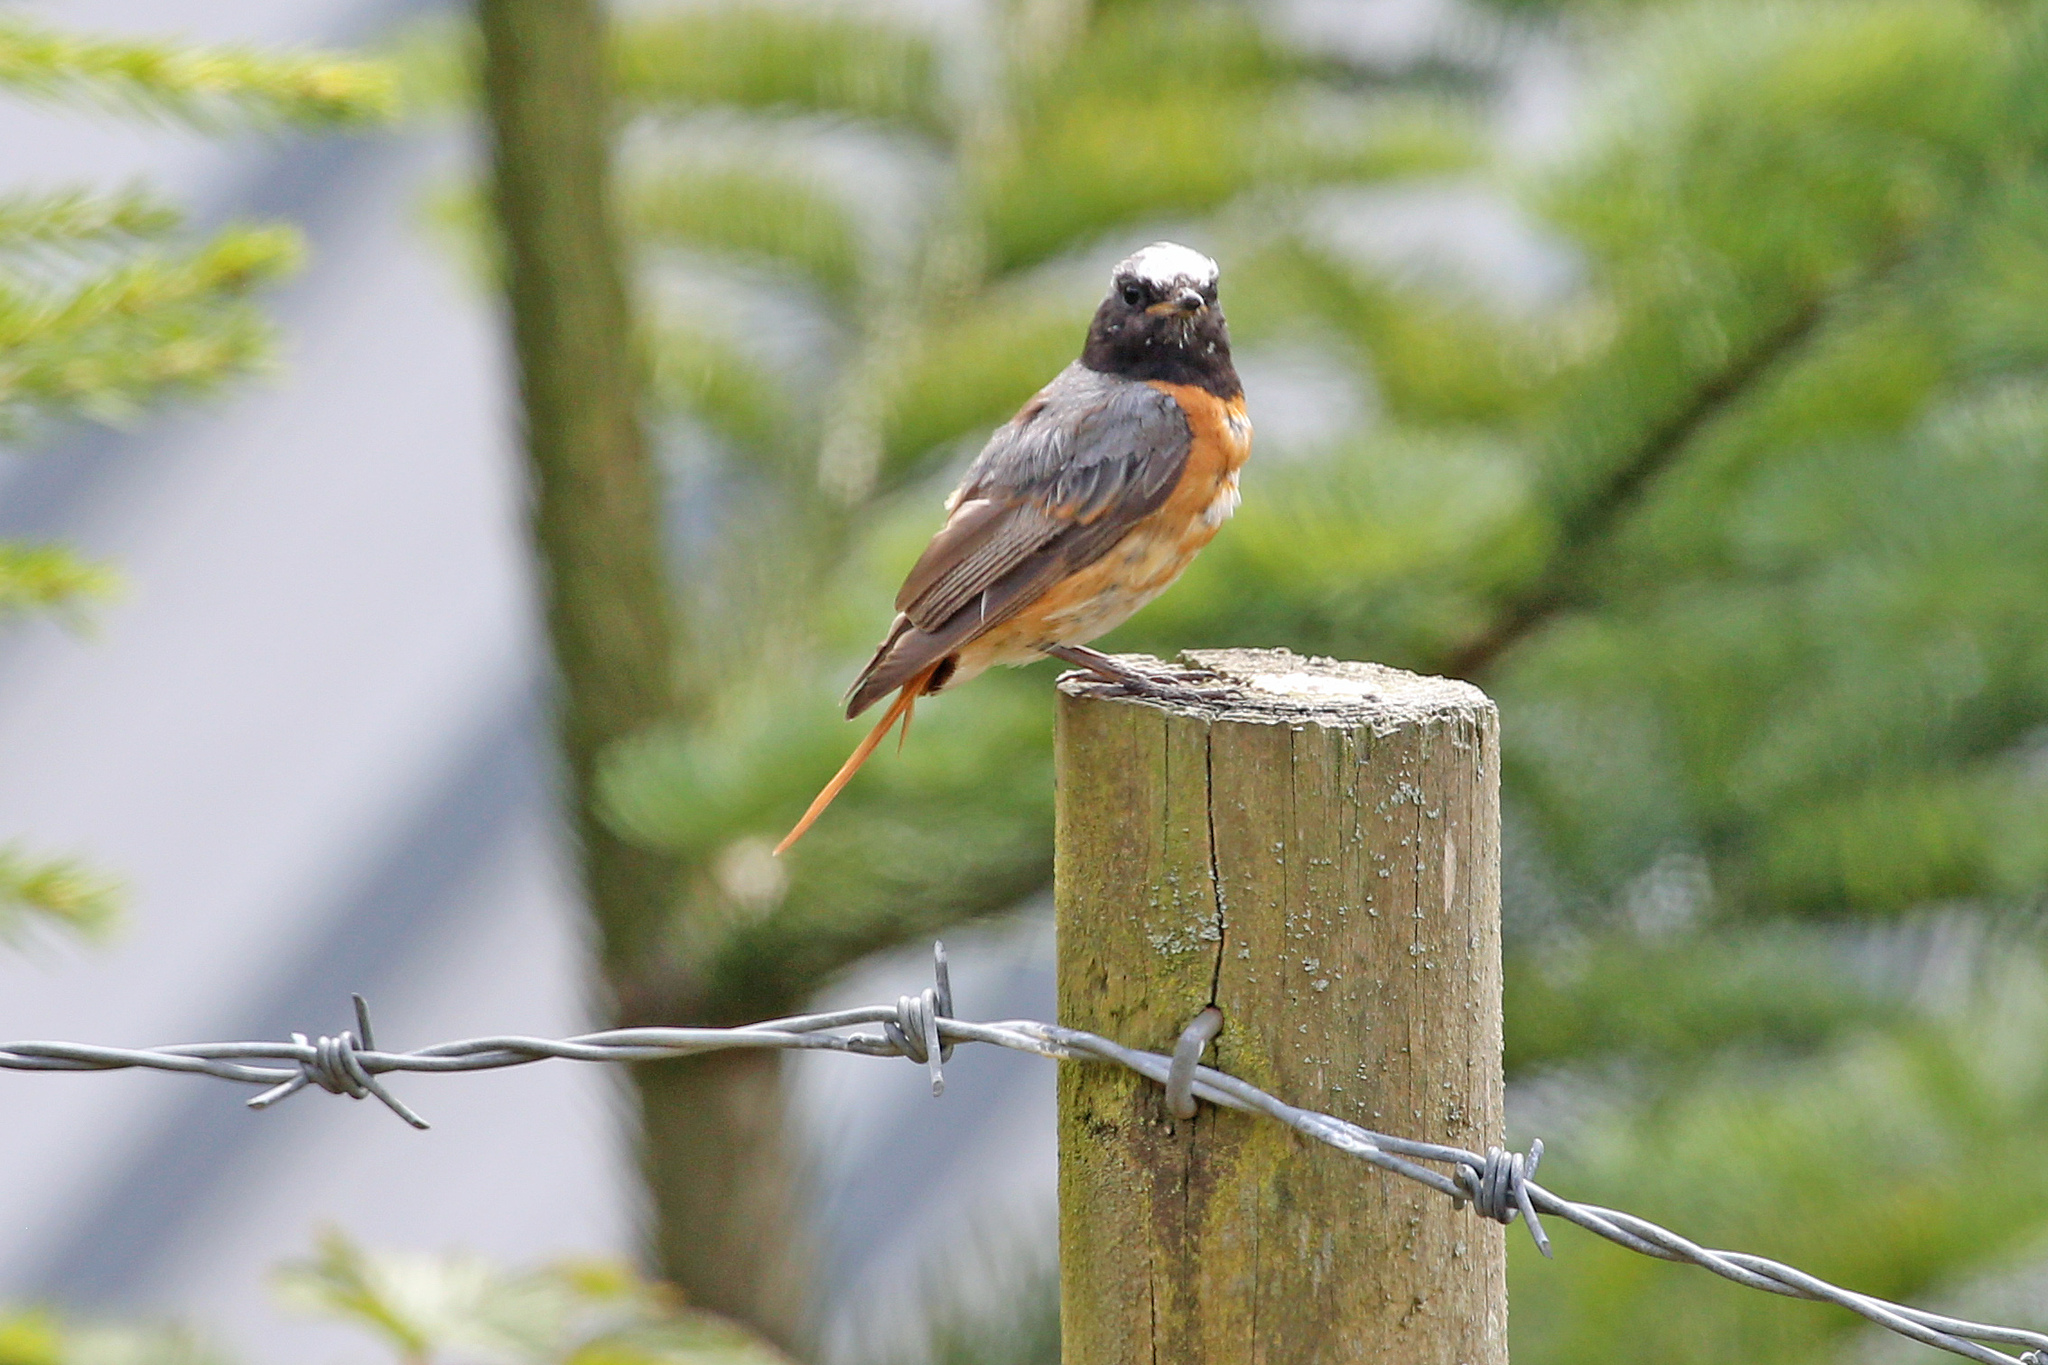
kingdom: Animalia
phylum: Chordata
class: Aves
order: Passeriformes
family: Muscicapidae
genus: Phoenicurus
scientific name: Phoenicurus phoenicurus
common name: Common redstart
